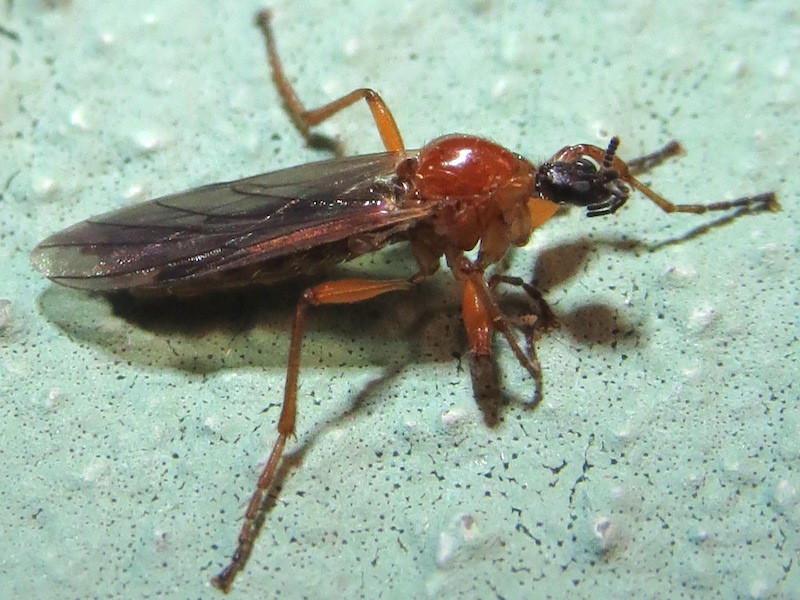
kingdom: Animalia
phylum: Arthropoda
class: Insecta
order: Diptera
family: Bibionidae
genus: Bibio
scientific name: Bibio townesi
